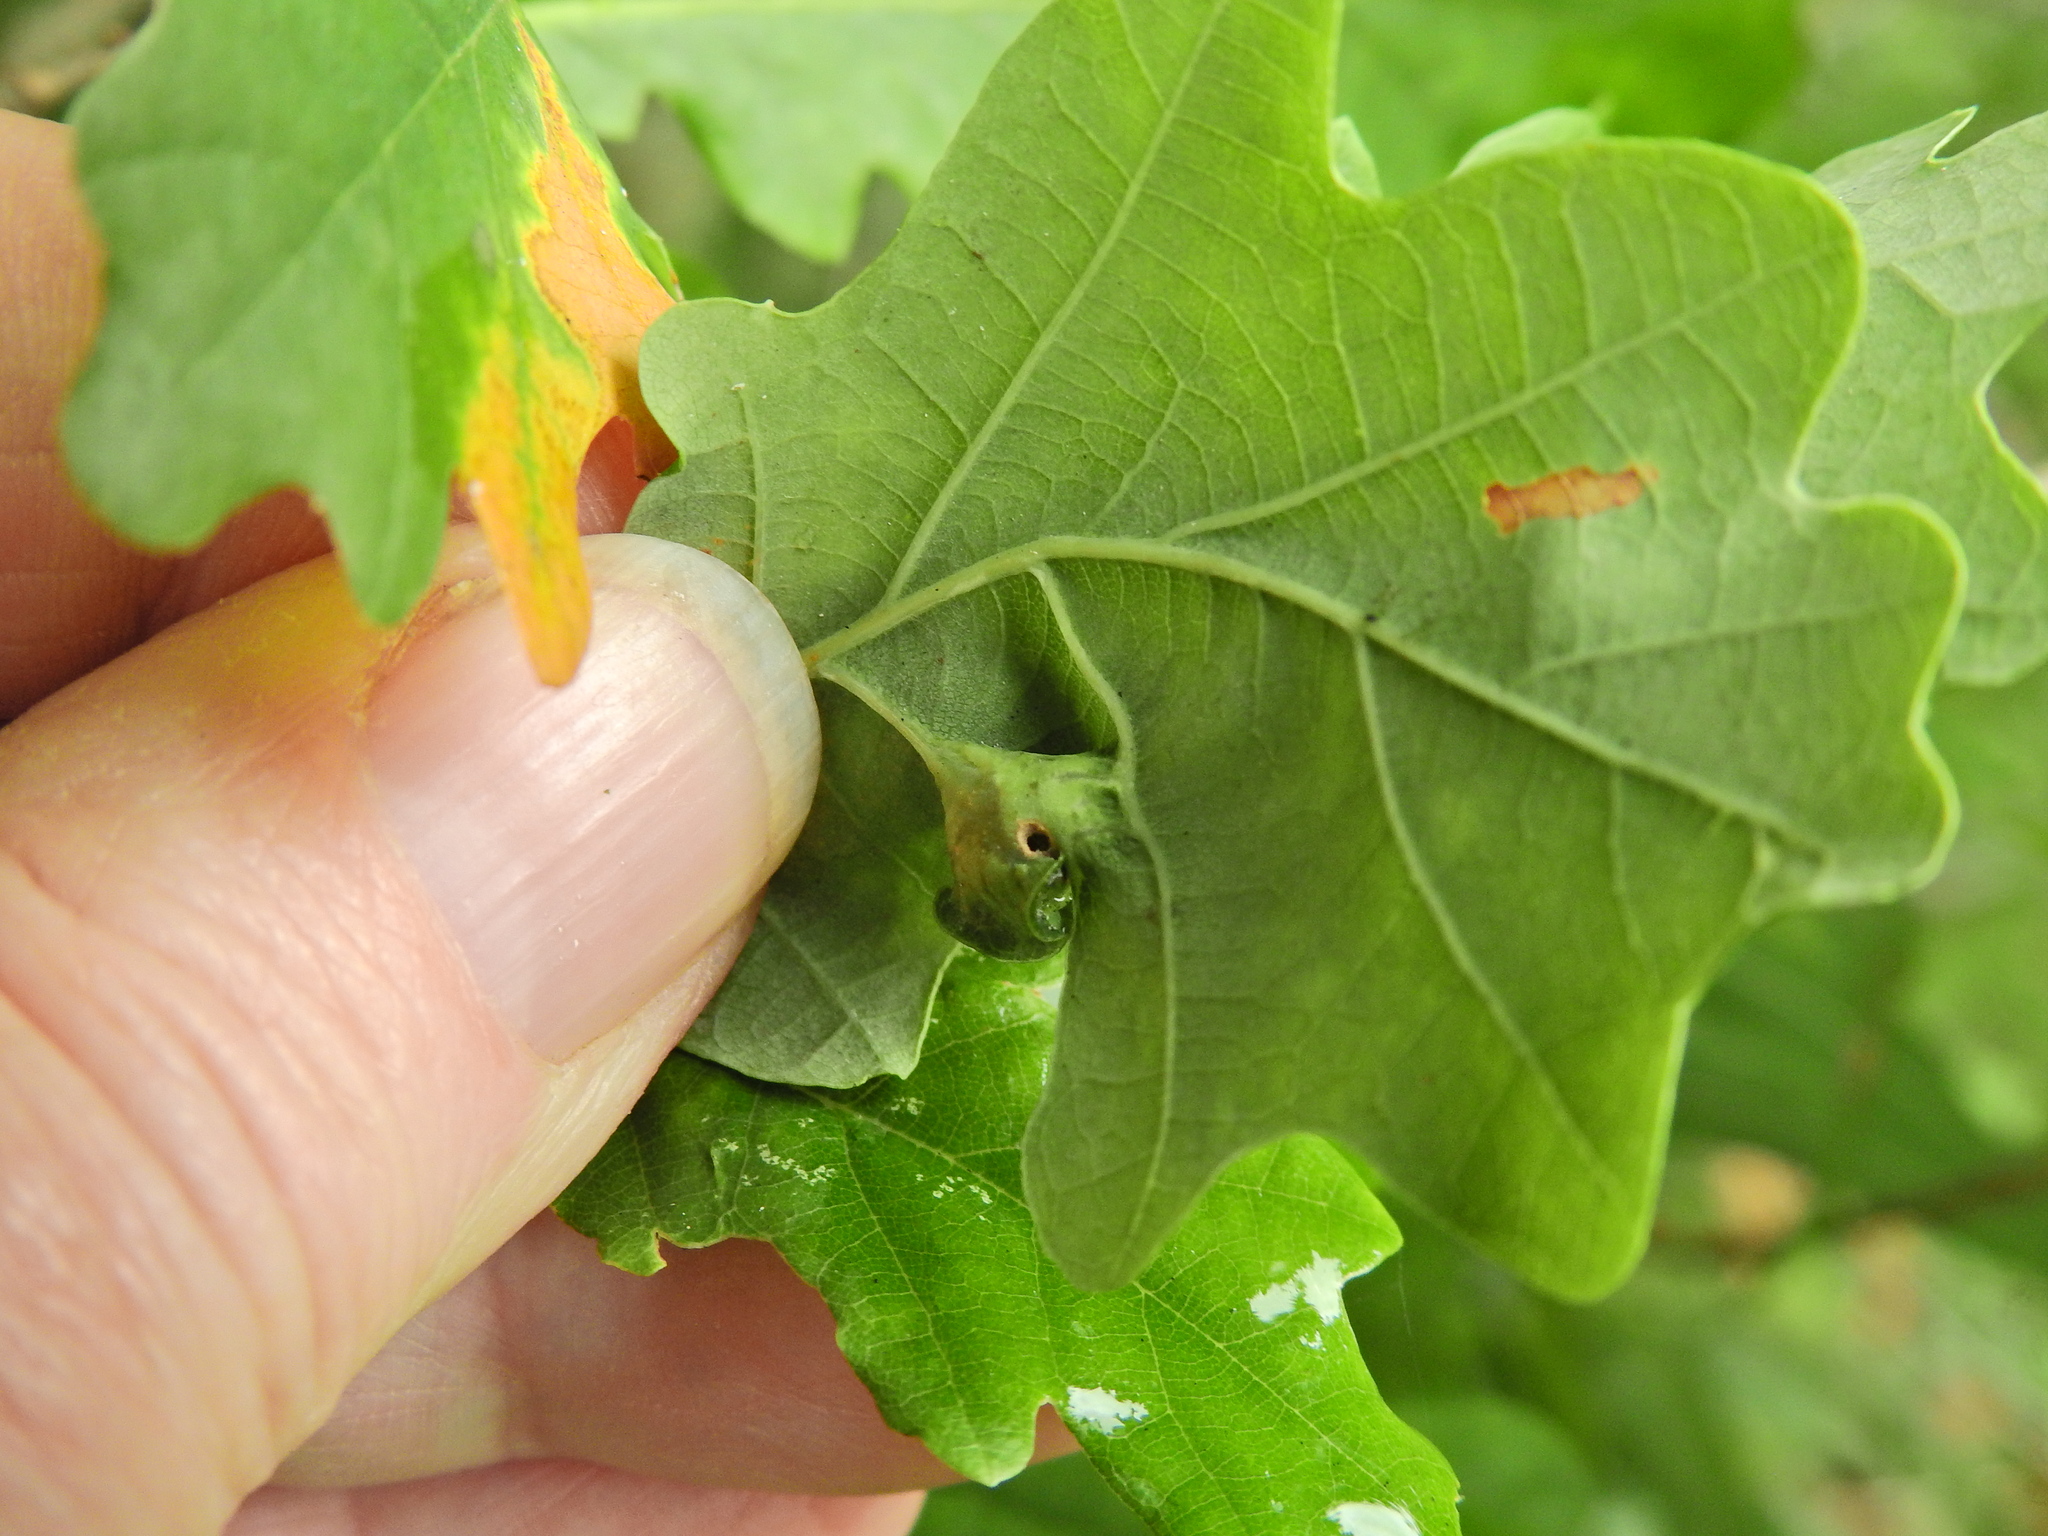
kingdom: Animalia
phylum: Arthropoda
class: Insecta
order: Hymenoptera
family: Cynipidae
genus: Andricus
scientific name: Andricus curvator
